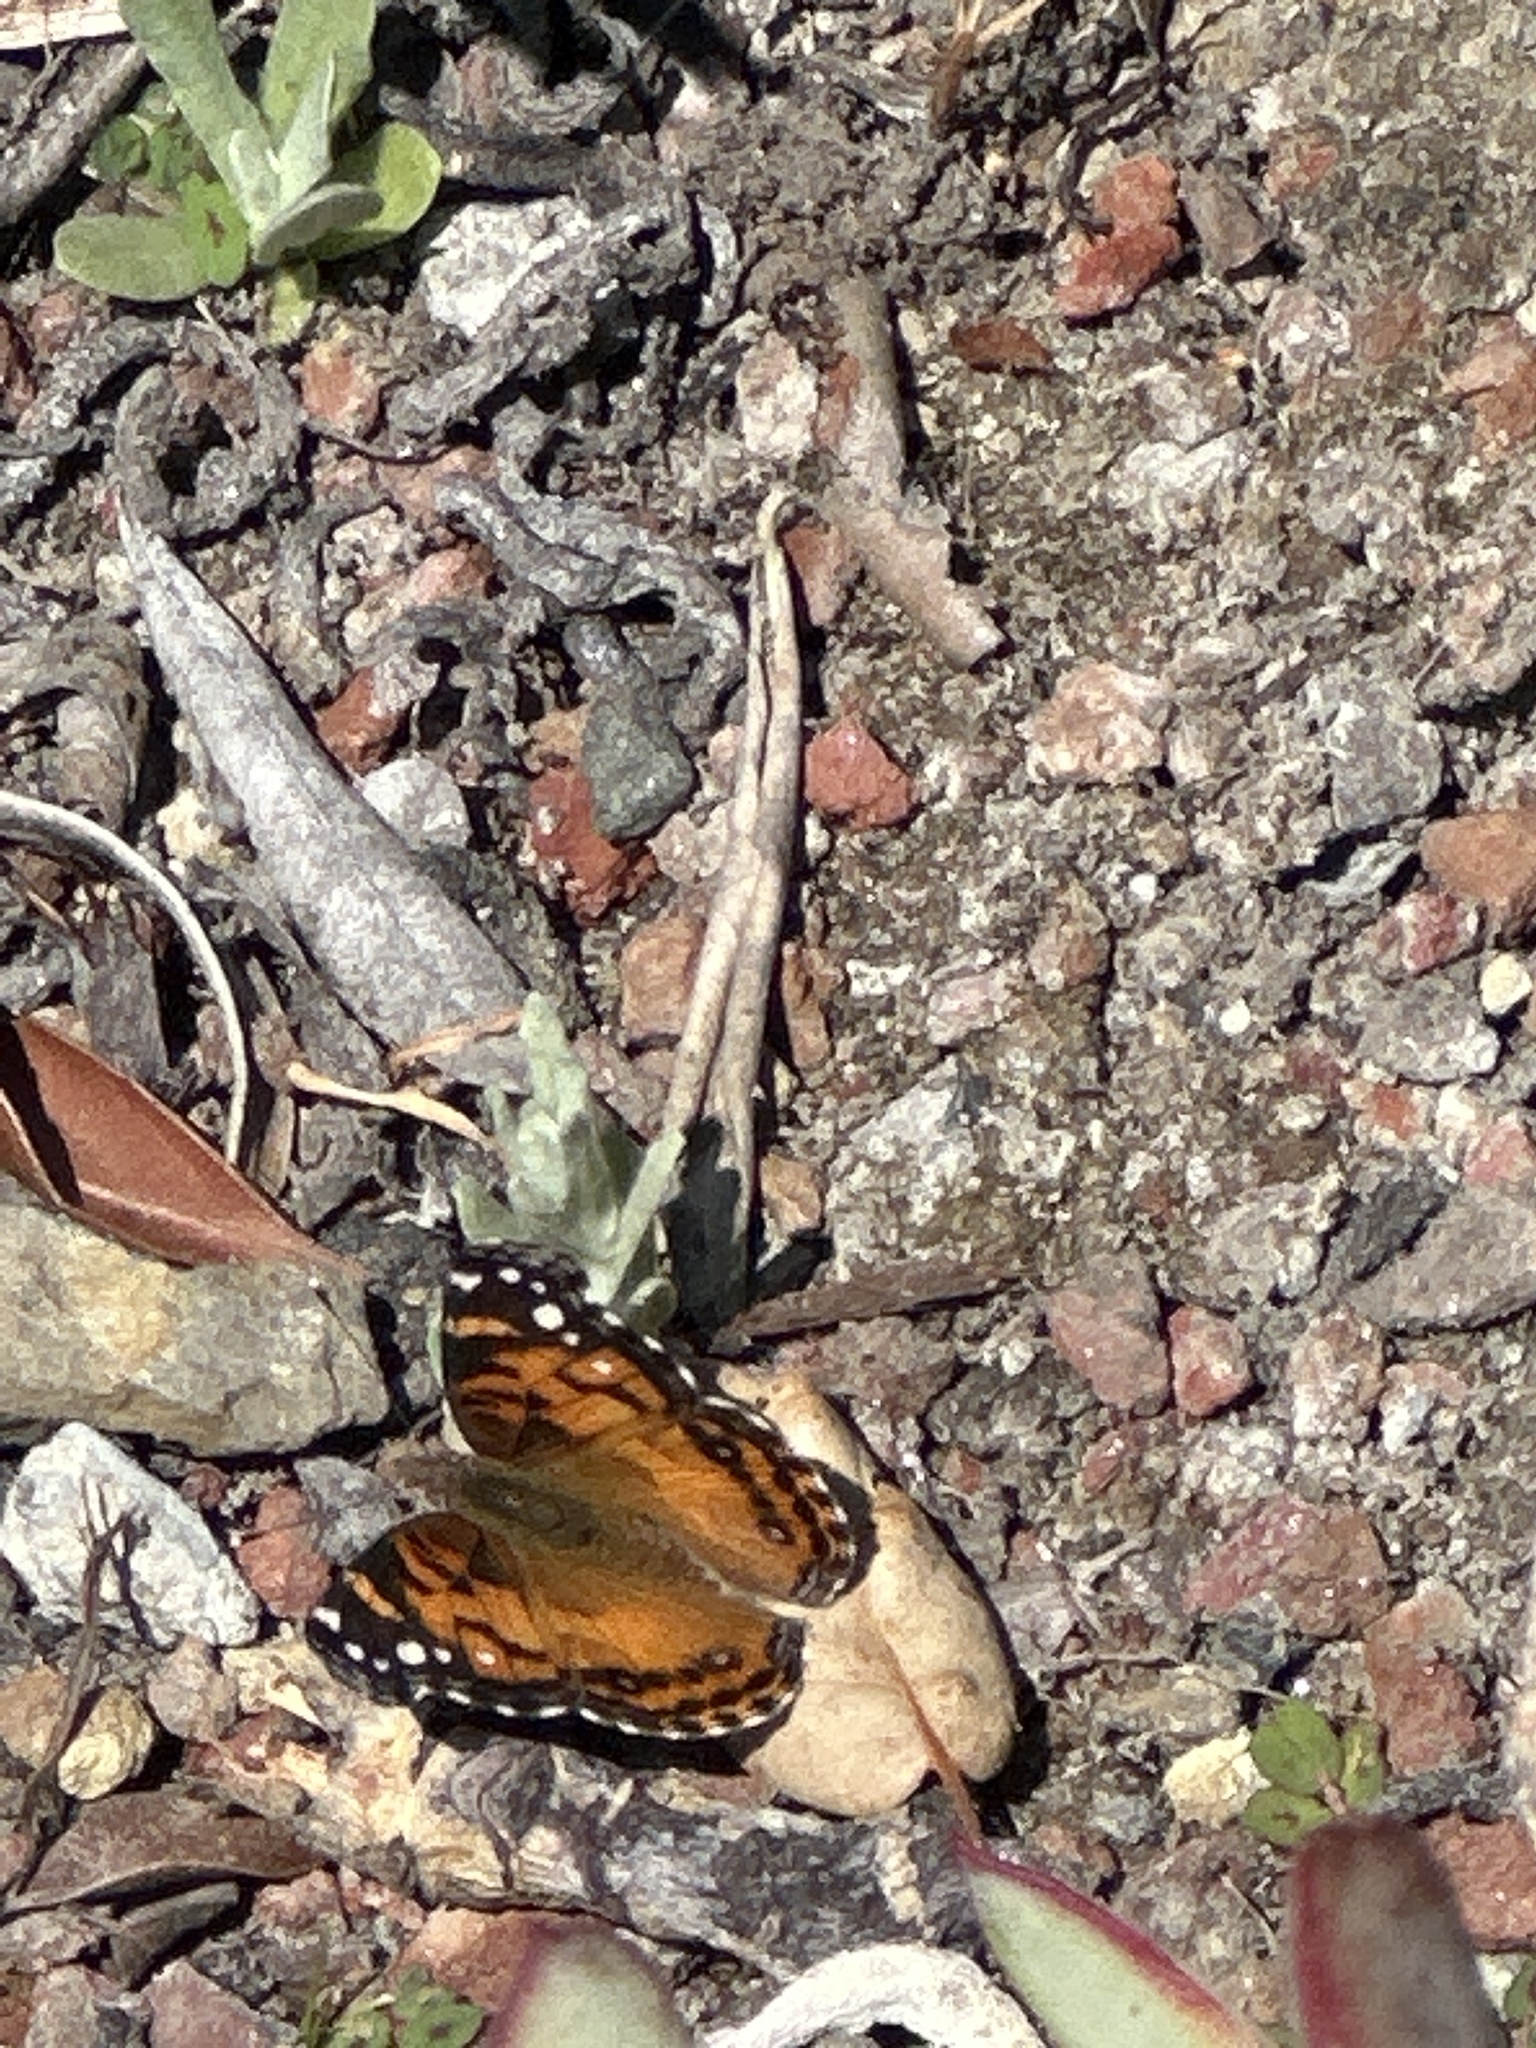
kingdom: Animalia
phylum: Arthropoda
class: Insecta
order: Lepidoptera
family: Nymphalidae
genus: Vanessa
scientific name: Vanessa virginiensis
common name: American lady
